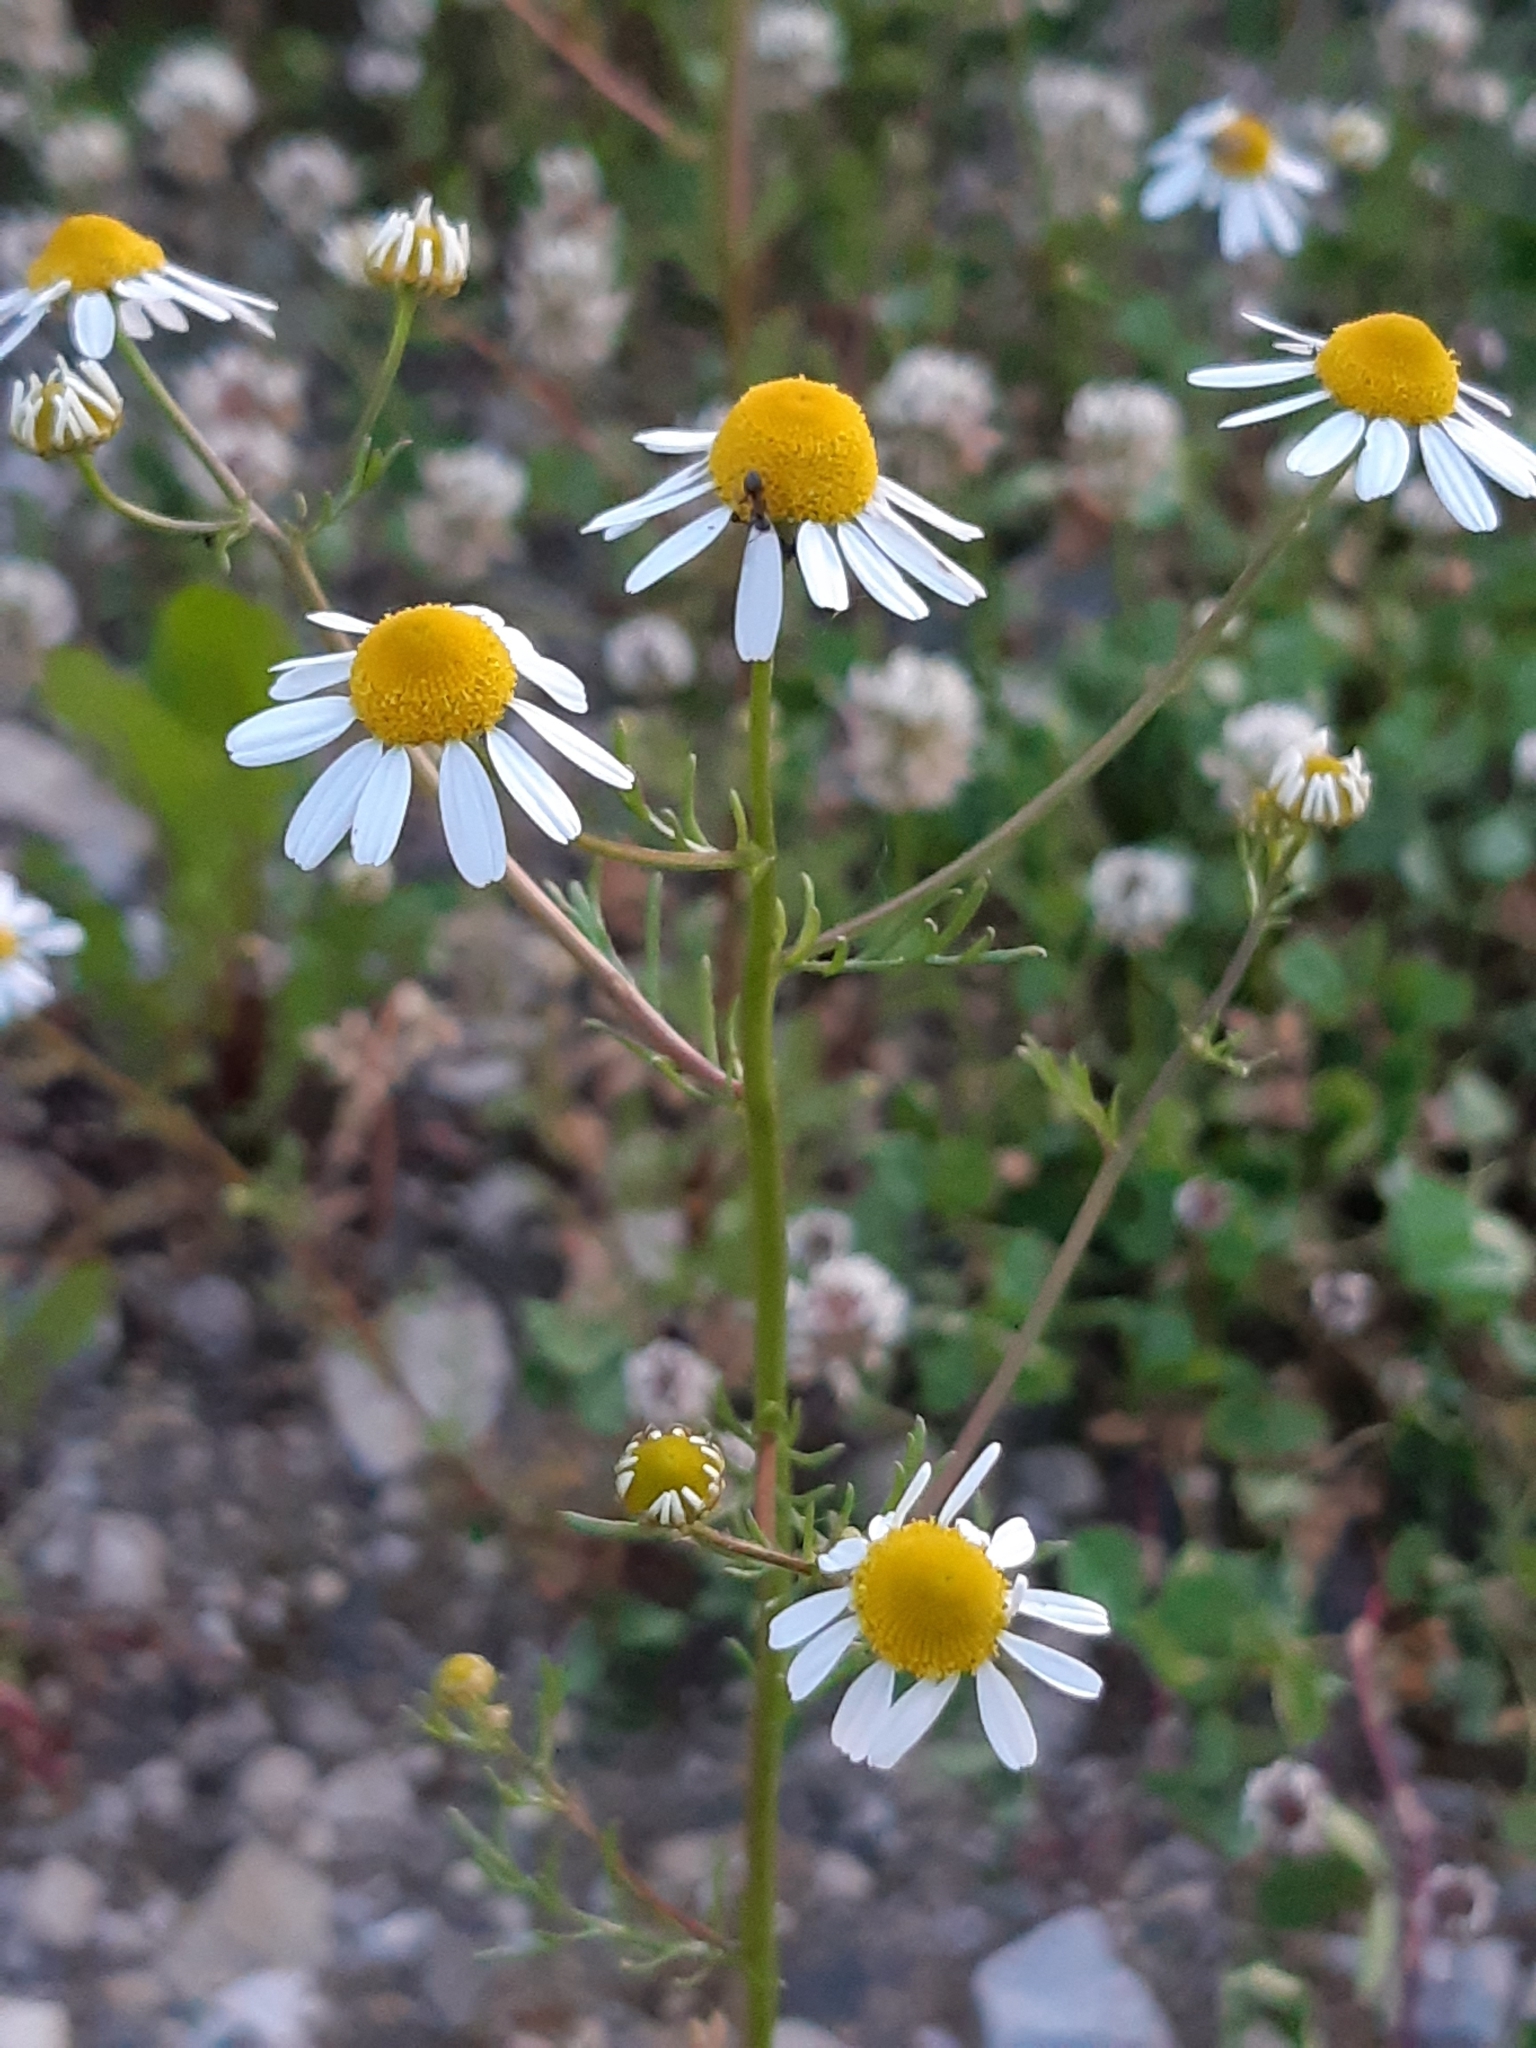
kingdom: Plantae
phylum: Tracheophyta
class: Magnoliopsida
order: Asterales
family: Asteraceae
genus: Matricaria
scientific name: Matricaria chamomilla
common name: Scented mayweed
